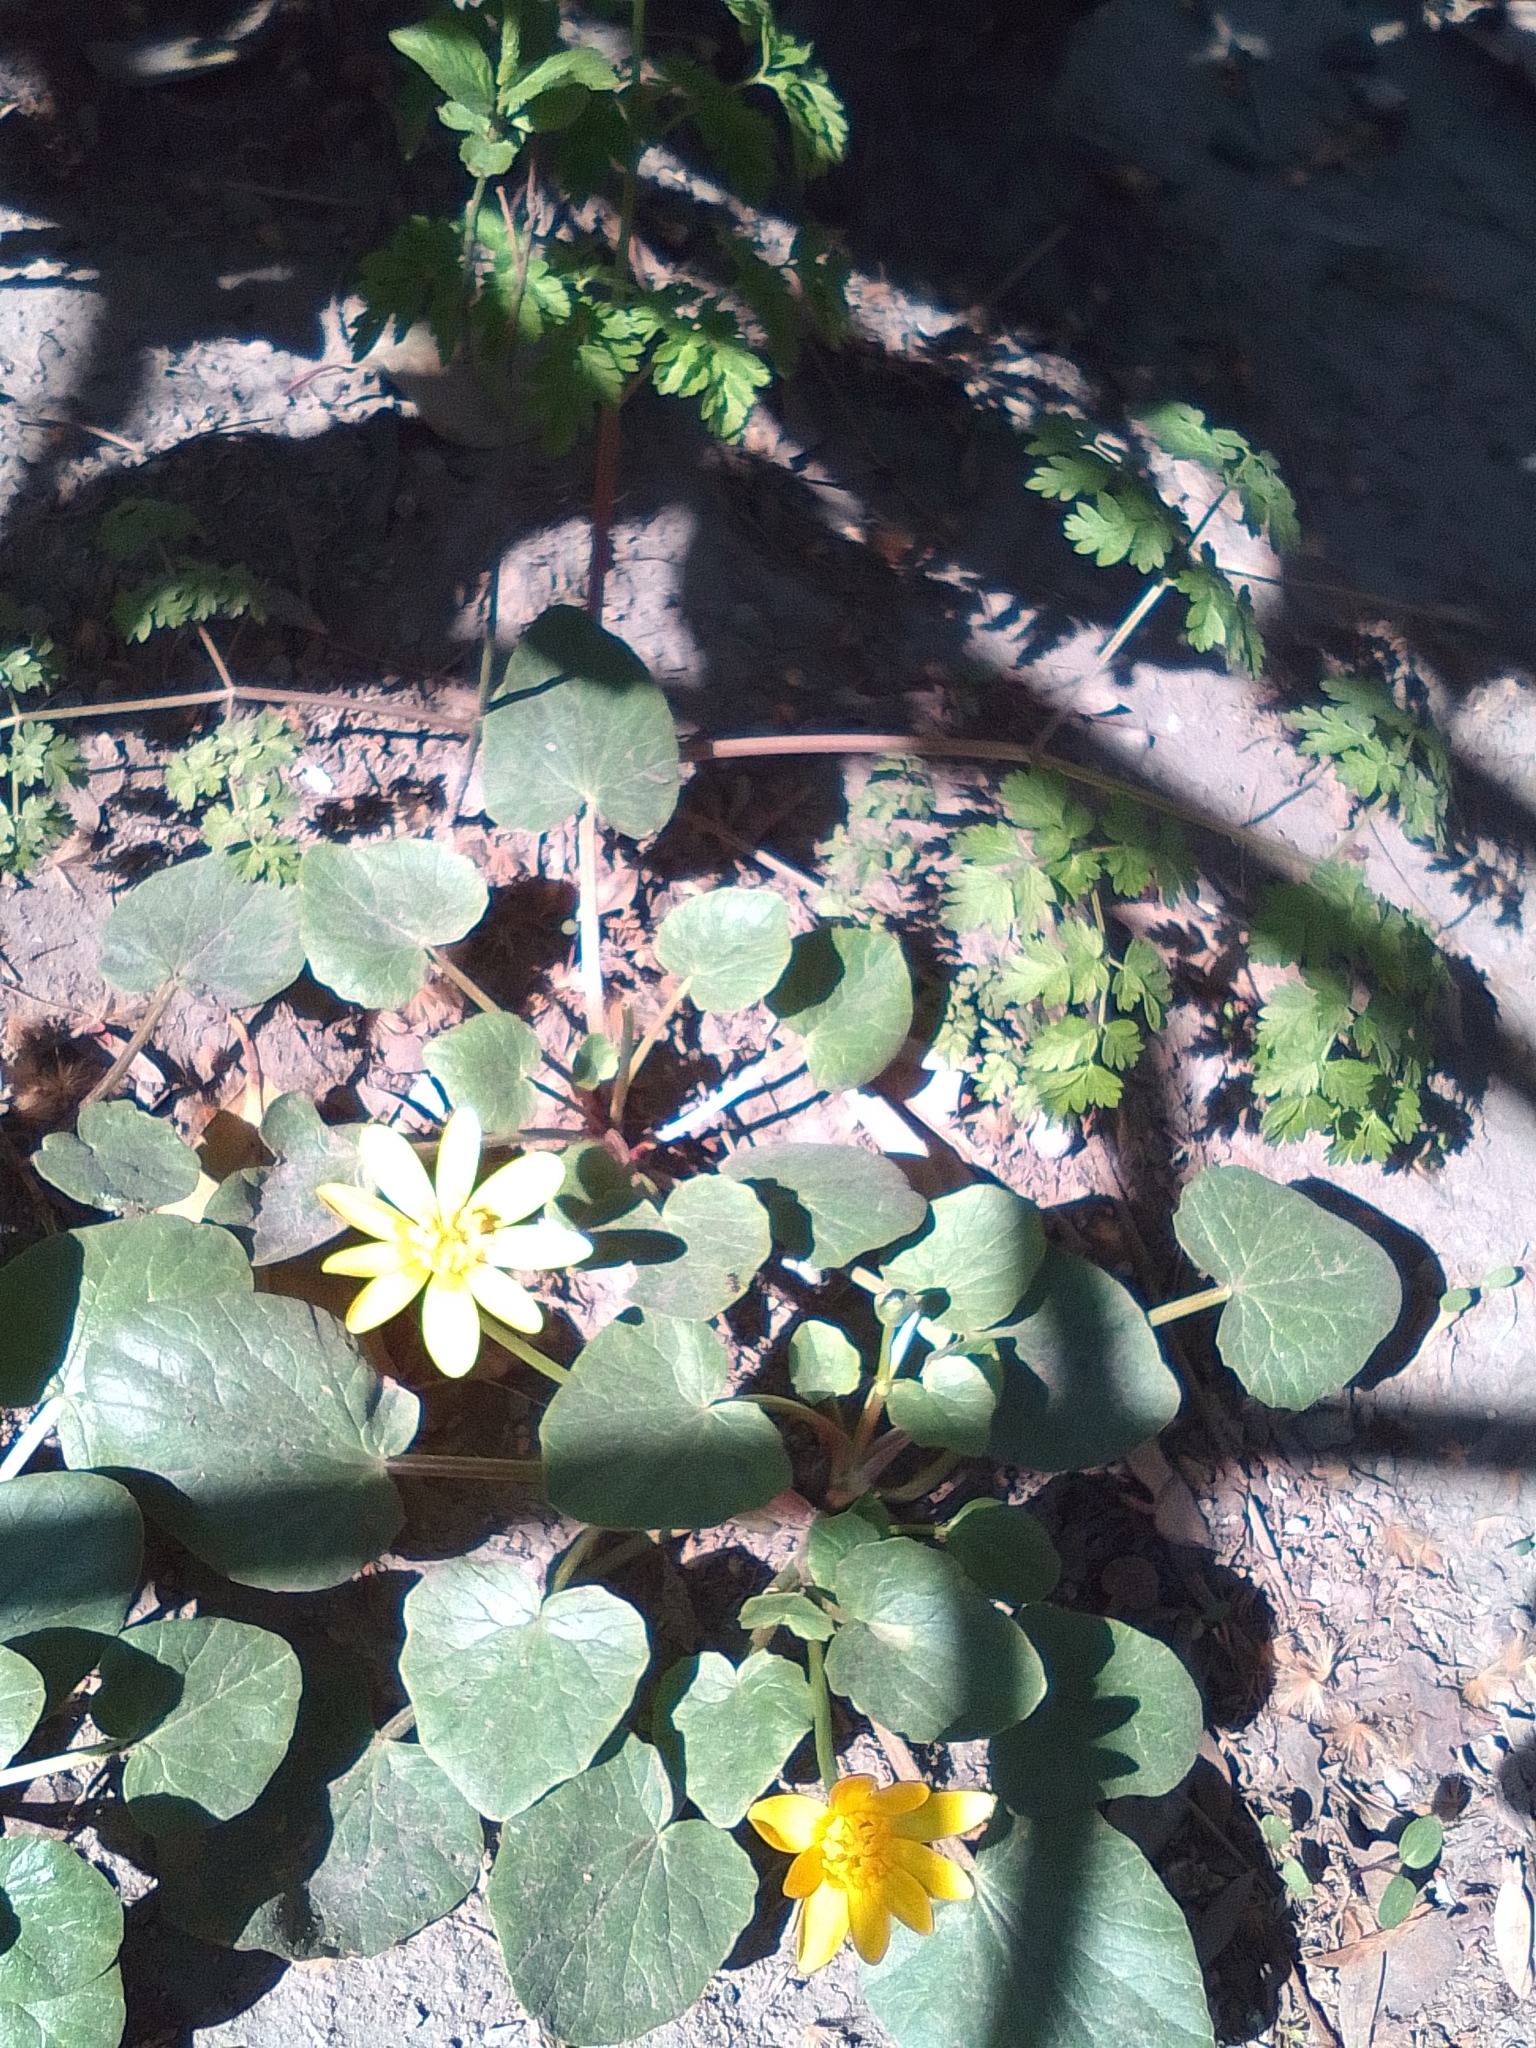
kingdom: Plantae
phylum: Tracheophyta
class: Magnoliopsida
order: Ranunculales
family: Ranunculaceae
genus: Ficaria
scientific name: Ficaria verna
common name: Lesser celandine
